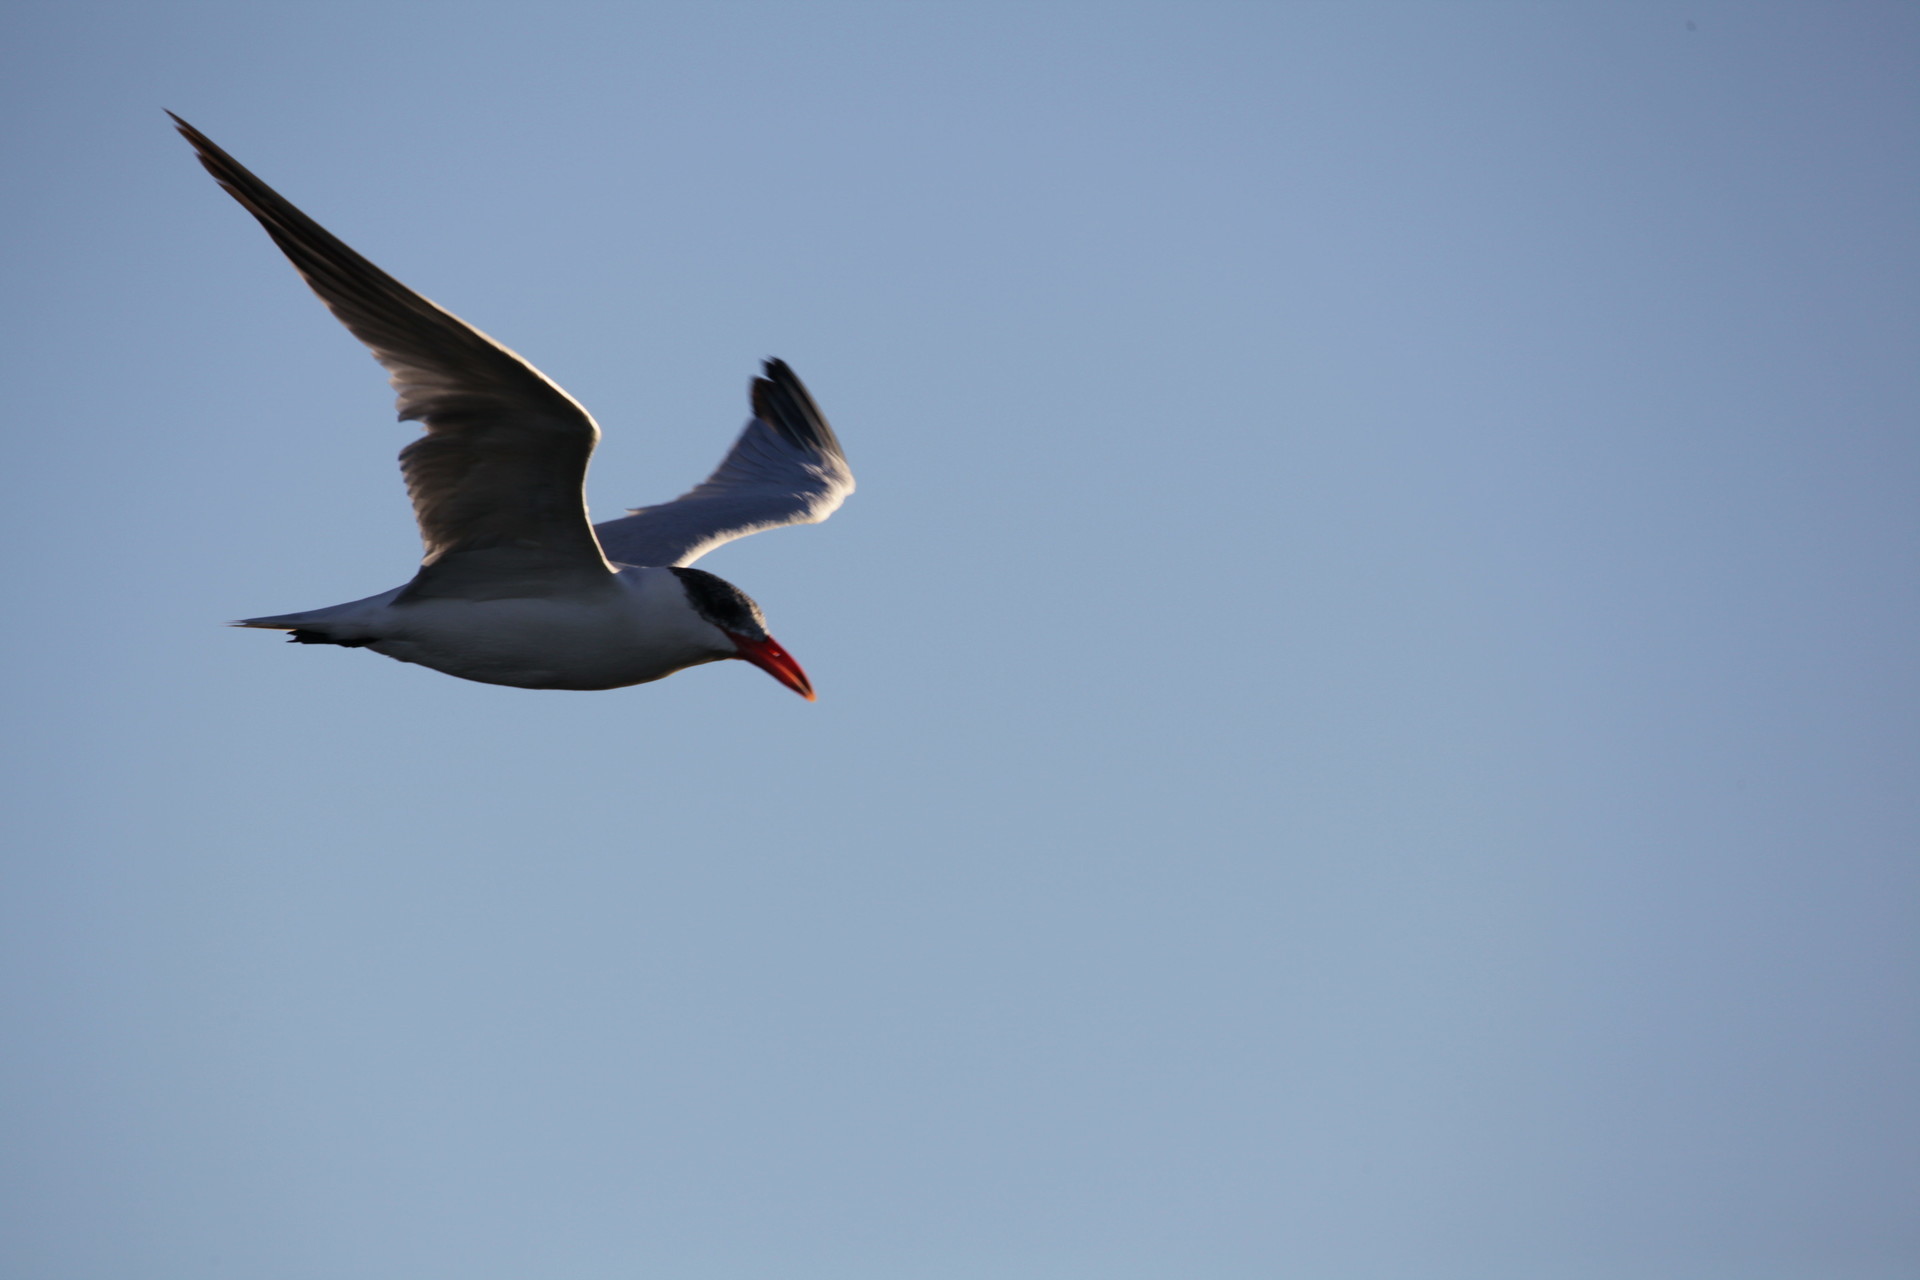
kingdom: Animalia
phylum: Chordata
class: Aves
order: Charadriiformes
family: Laridae
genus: Hydroprogne
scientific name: Hydroprogne caspia
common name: Caspian tern
